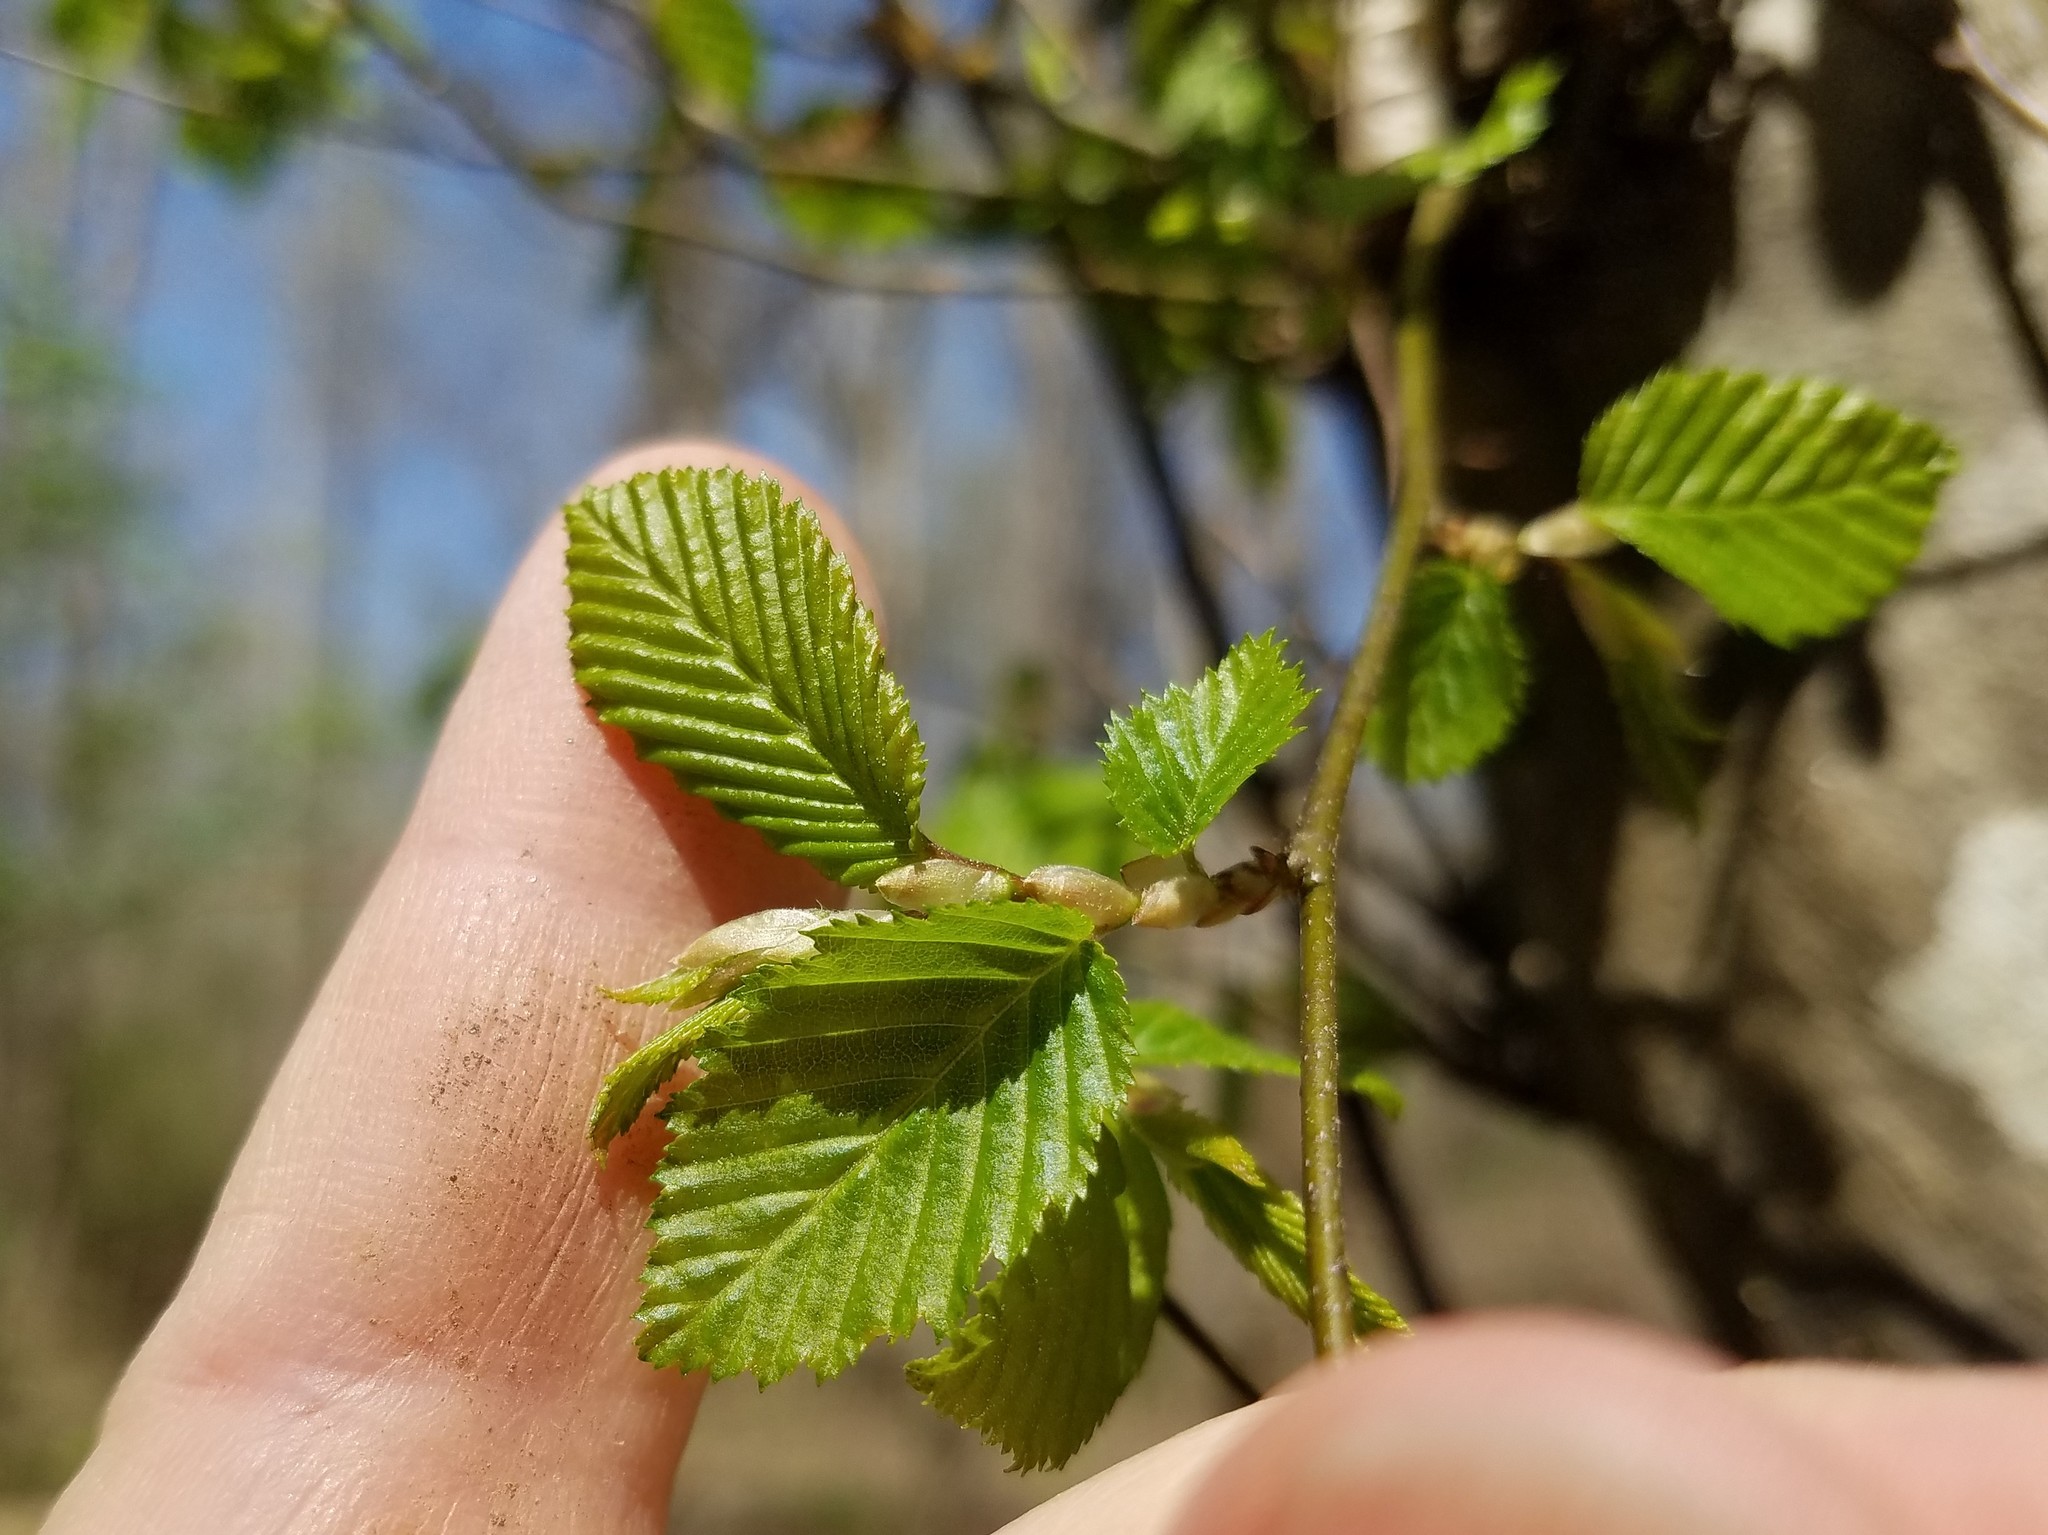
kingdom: Plantae
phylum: Tracheophyta
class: Magnoliopsida
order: Fagales
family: Betulaceae
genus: Carpinus
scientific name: Carpinus caroliniana
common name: American hornbeam
